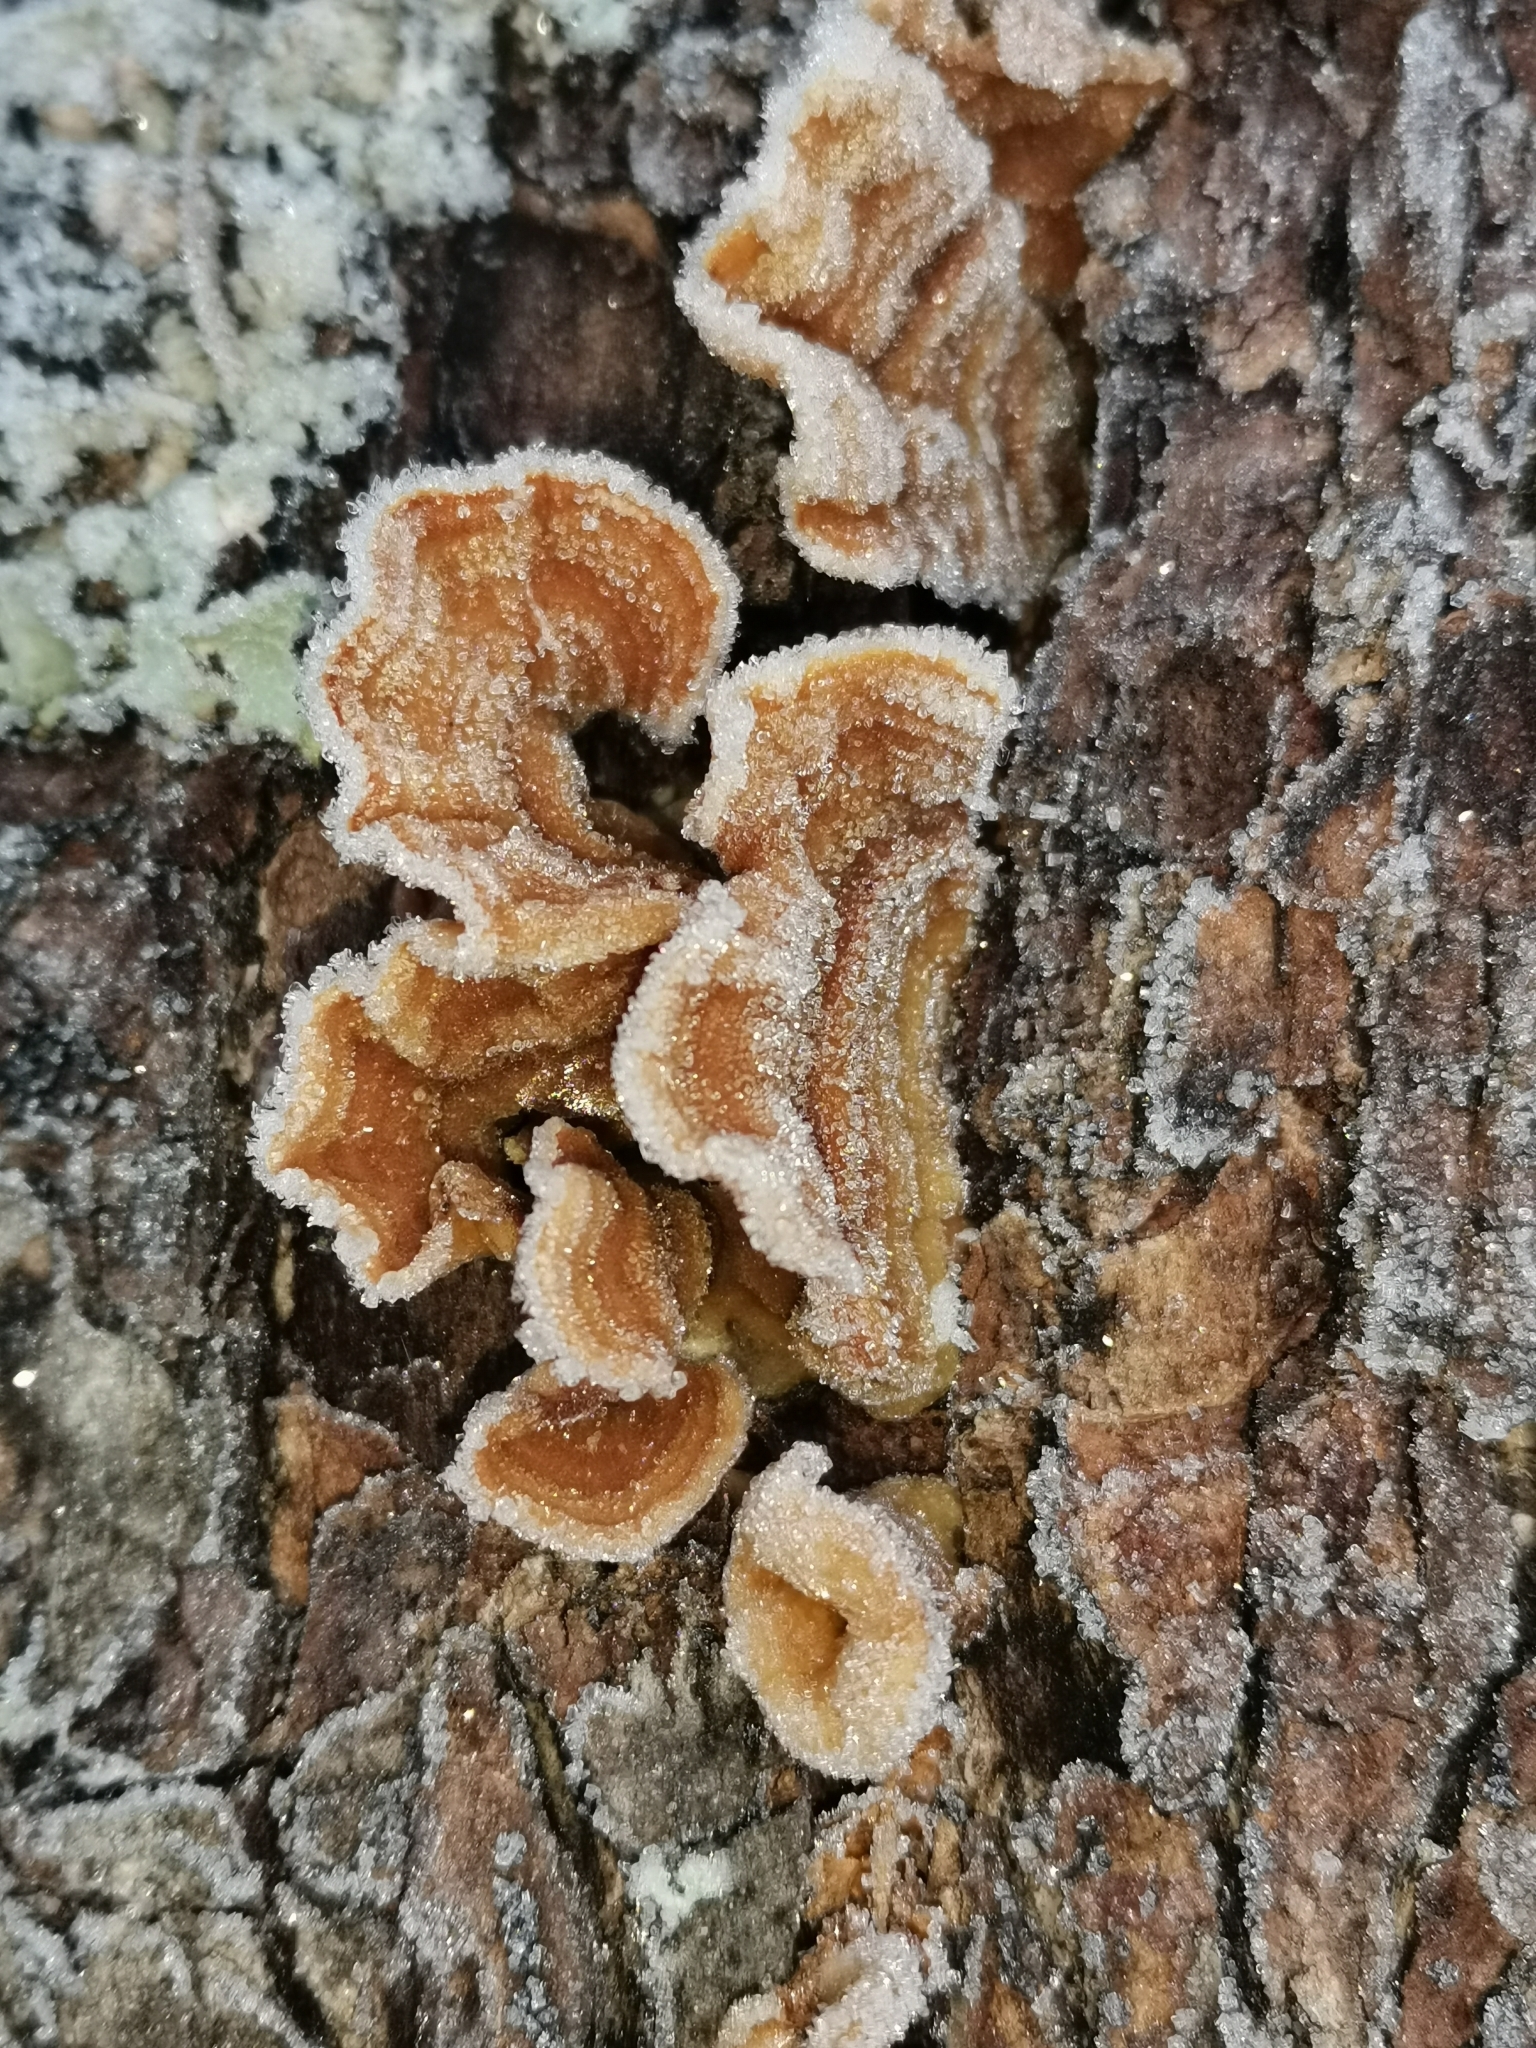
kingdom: Fungi
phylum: Basidiomycota
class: Agaricomycetes
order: Russulales
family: Stereaceae
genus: Stereum
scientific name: Stereum hirsutum
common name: Hairy curtain crust
